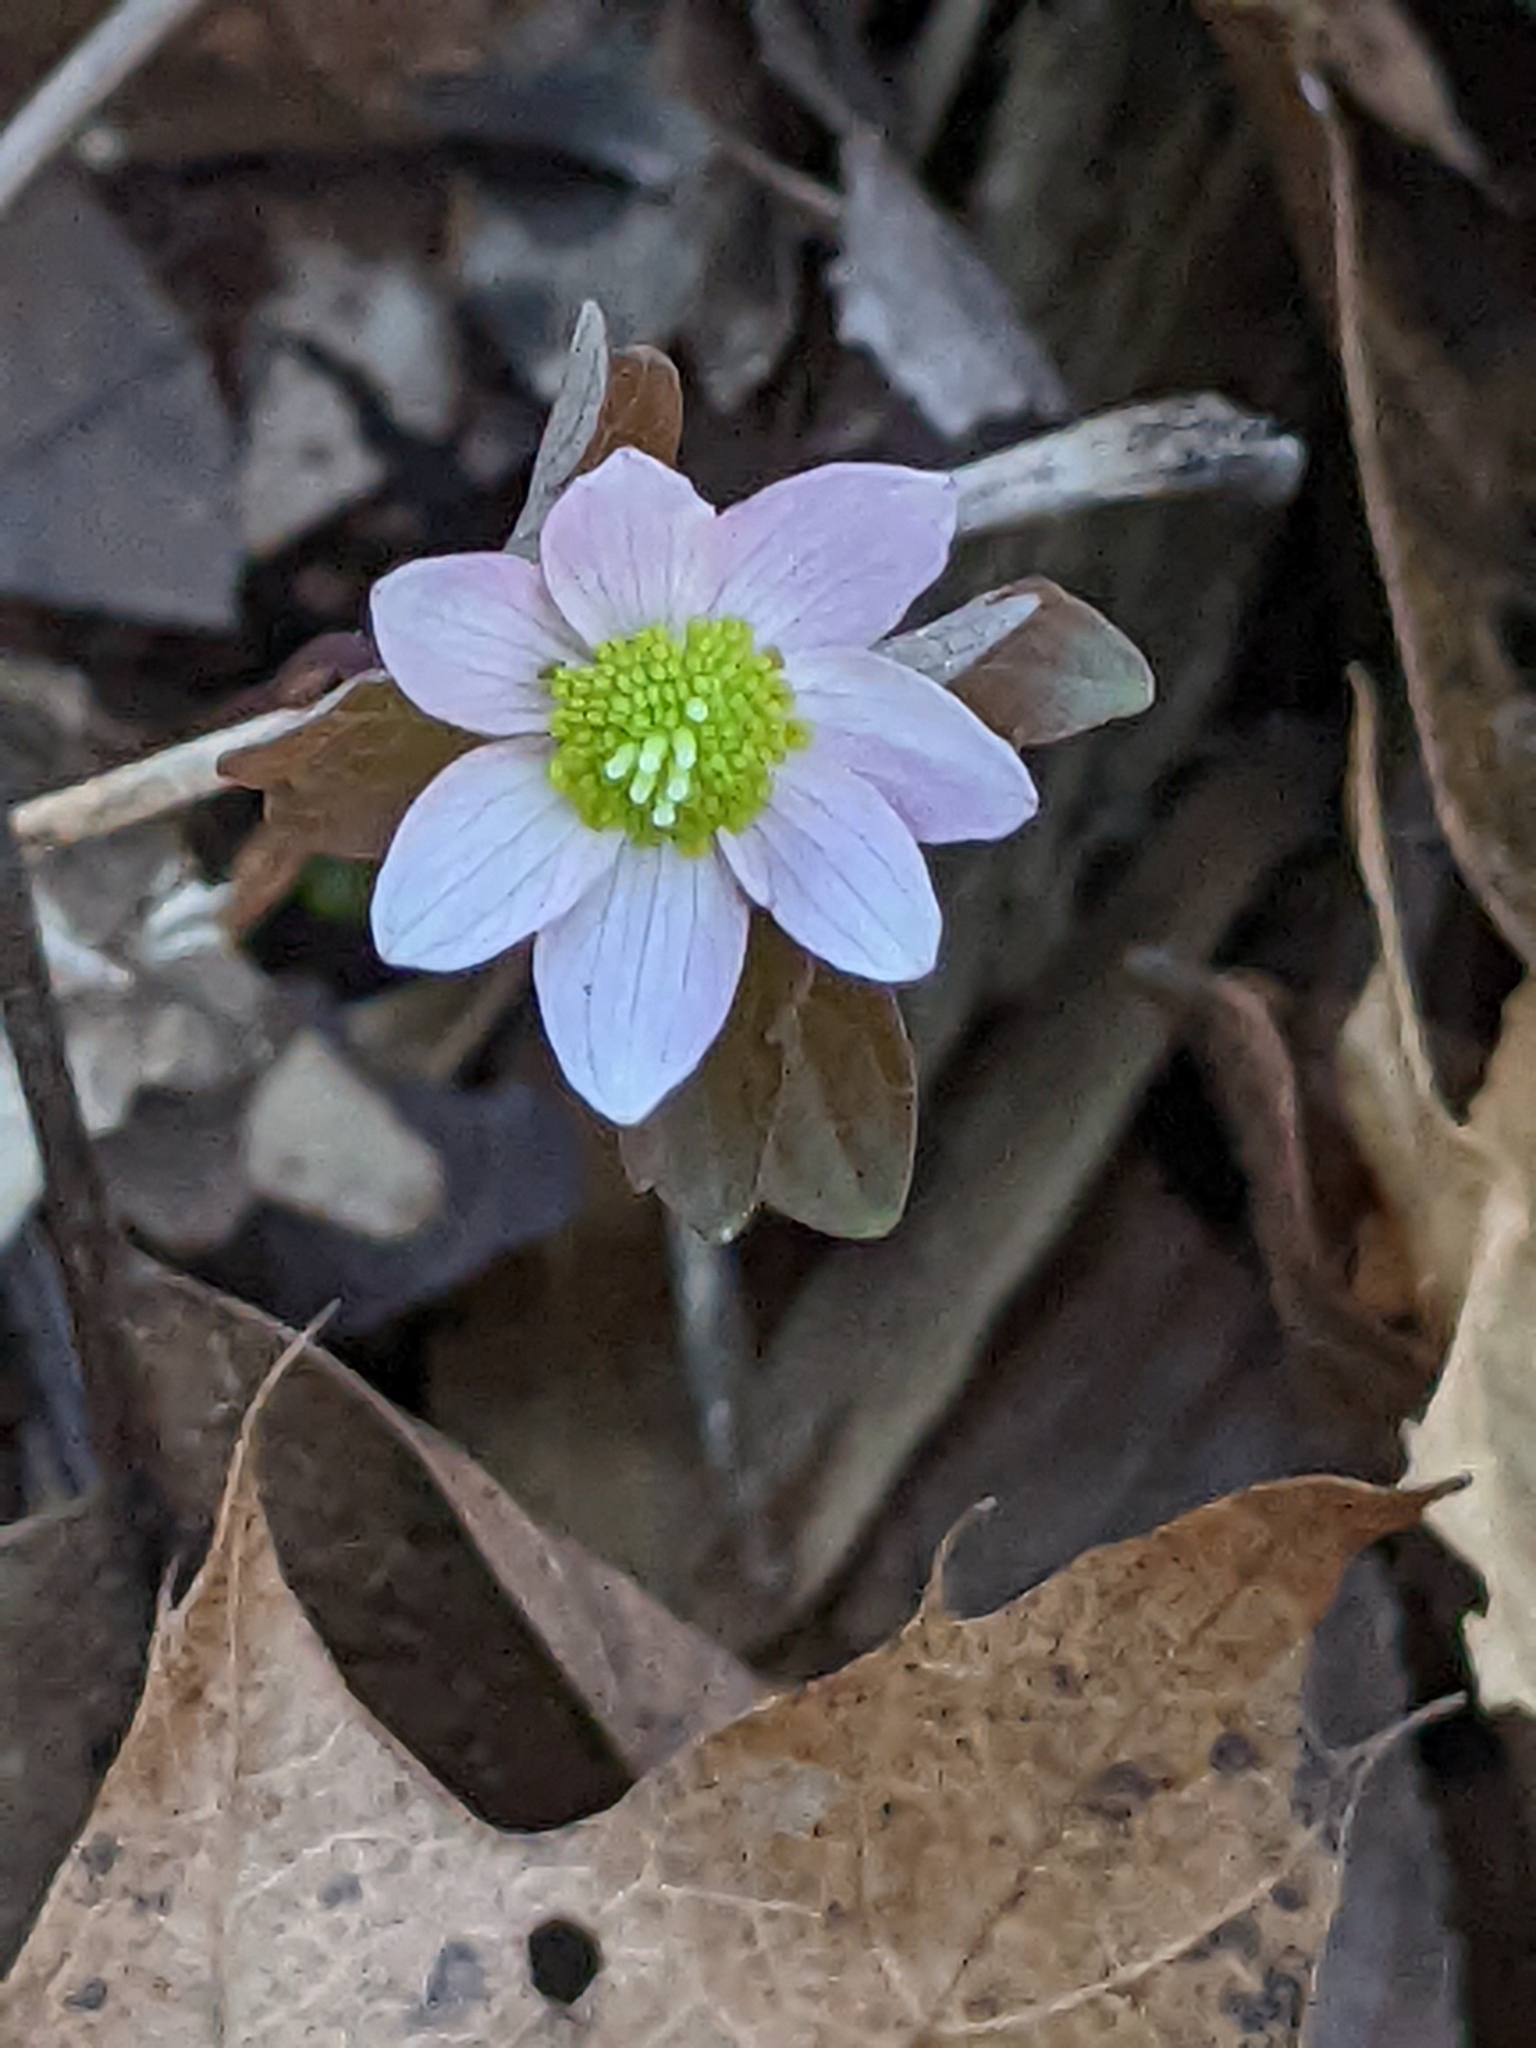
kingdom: Plantae
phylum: Tracheophyta
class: Magnoliopsida
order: Ranunculales
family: Ranunculaceae
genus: Thalictrum
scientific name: Thalictrum thalictroides
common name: Rue-anemone
